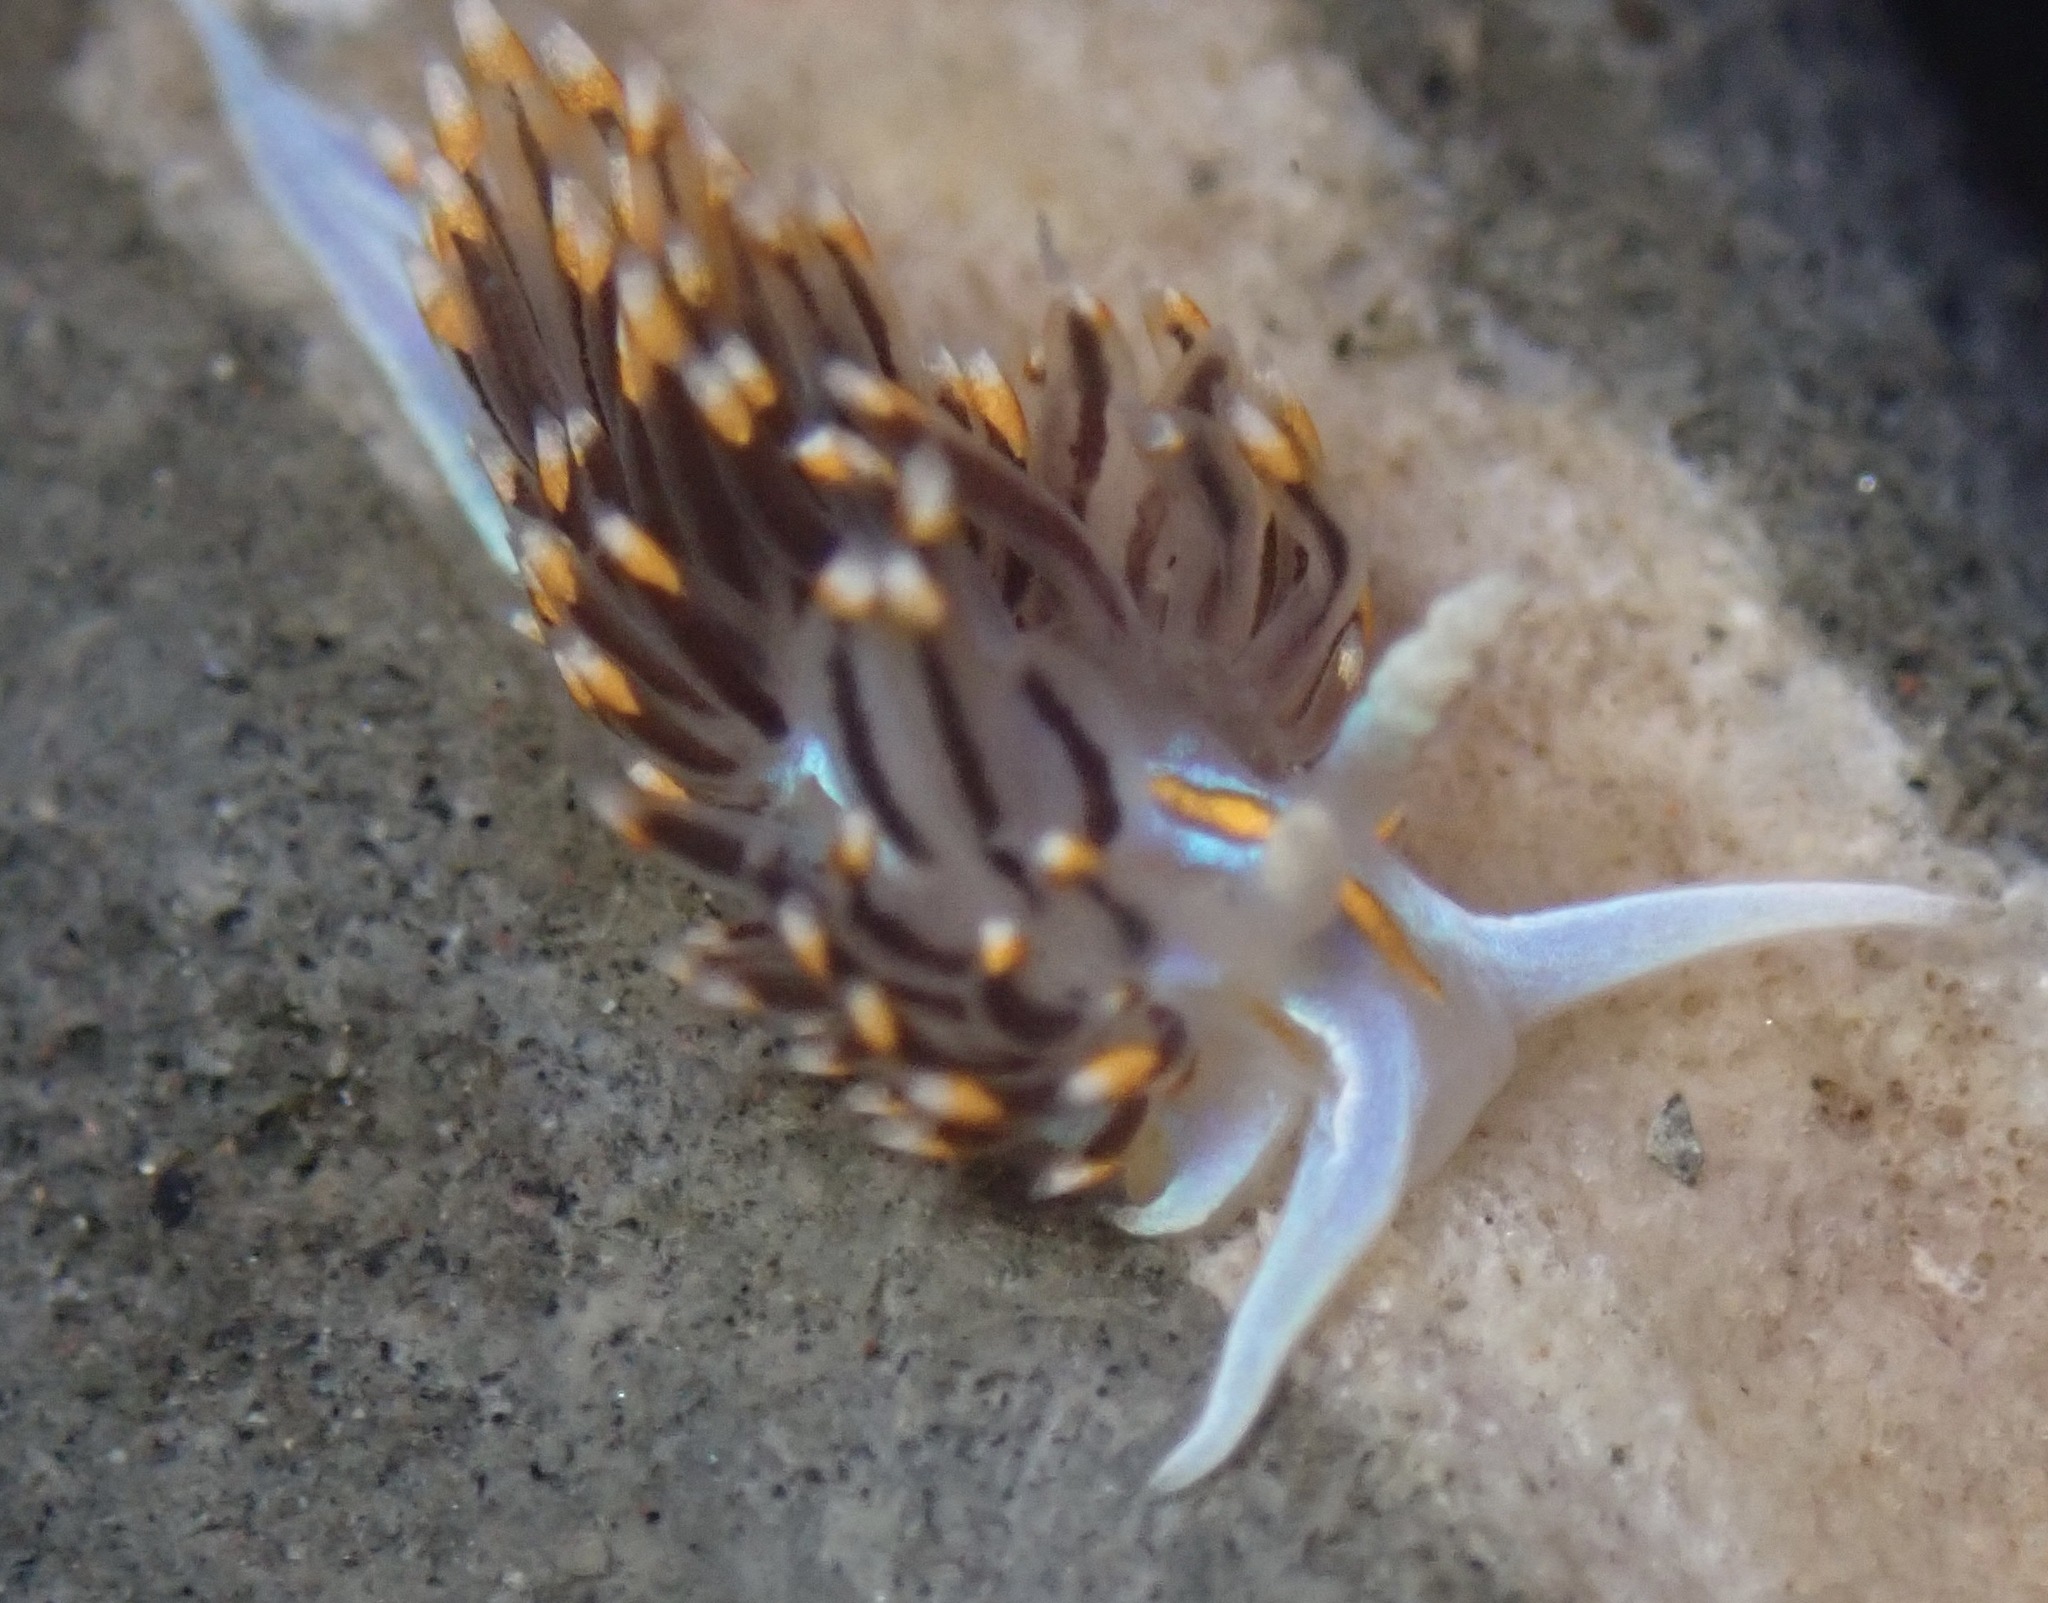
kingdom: Animalia
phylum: Mollusca
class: Gastropoda
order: Nudibranchia
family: Myrrhinidae
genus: Hermissenda
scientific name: Hermissenda opalescens
